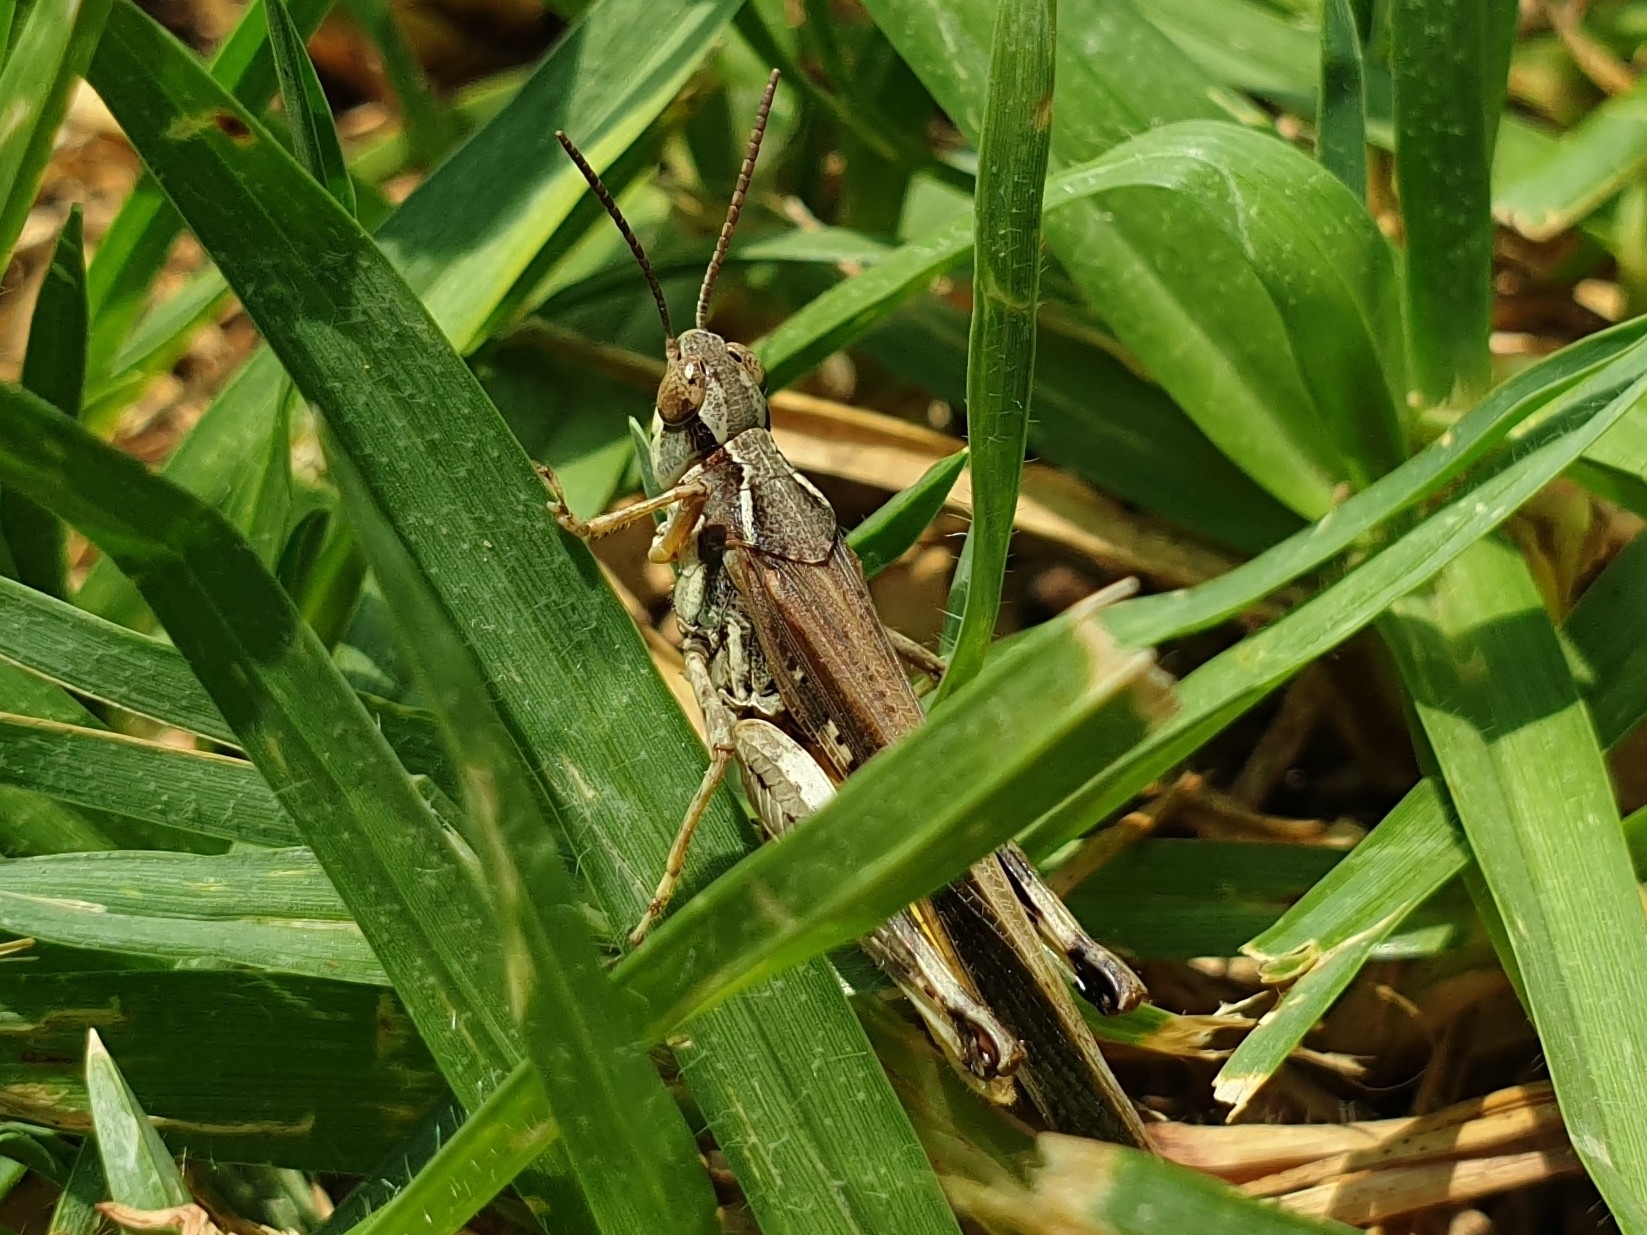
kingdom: Animalia
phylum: Arthropoda
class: Insecta
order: Orthoptera
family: Acrididae
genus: Aiolopus
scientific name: Aiolopus puissanti
